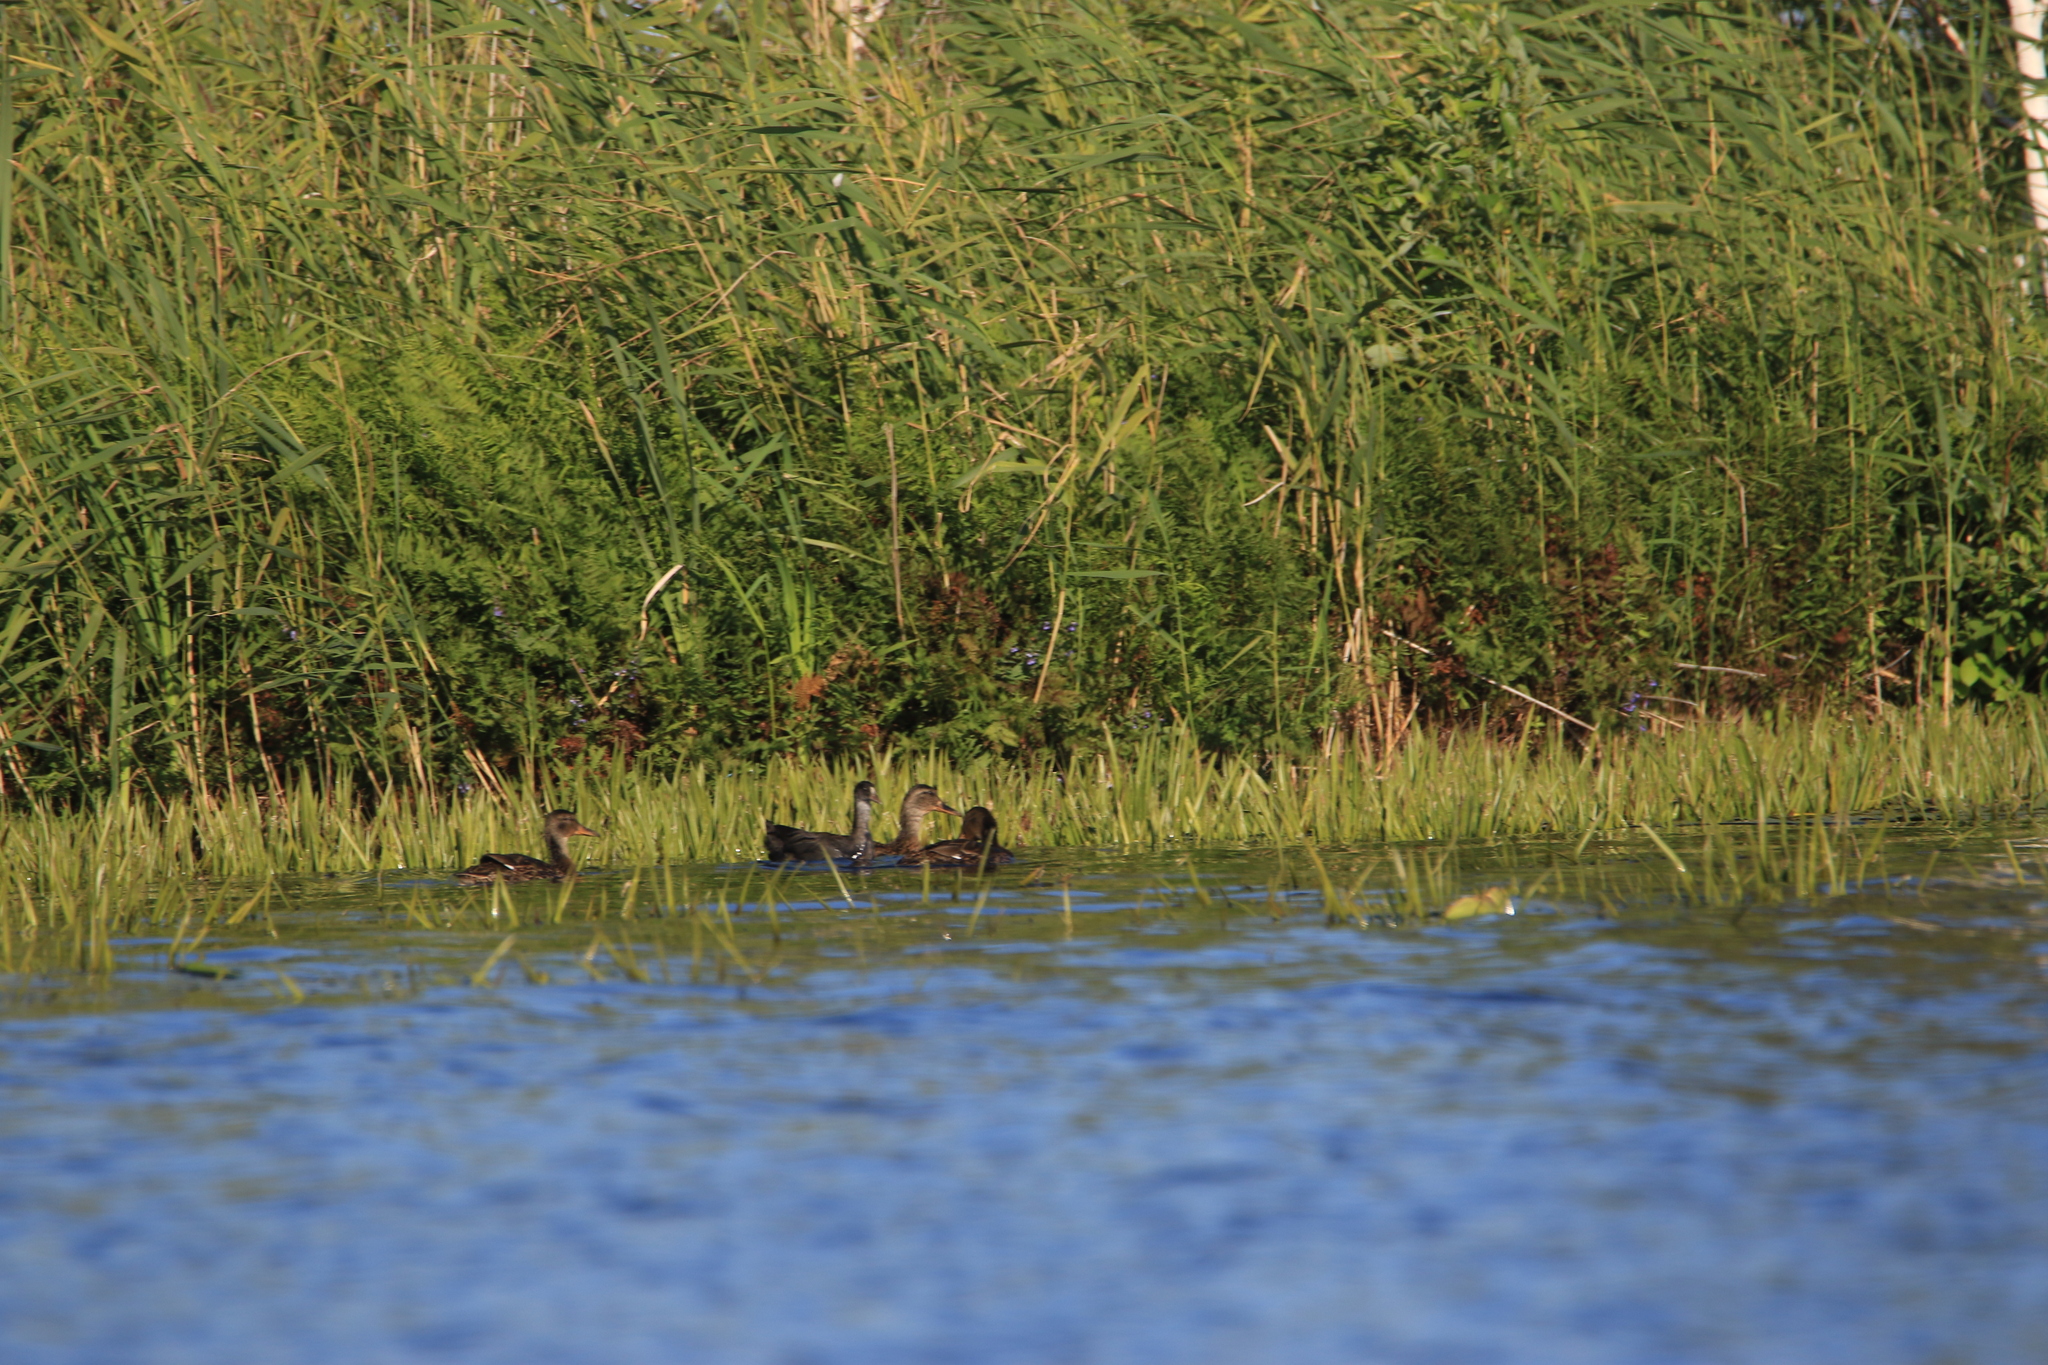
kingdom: Animalia
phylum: Chordata
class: Aves
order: Anseriformes
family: Anatidae
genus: Anas
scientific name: Anas platyrhynchos
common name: Mallard
